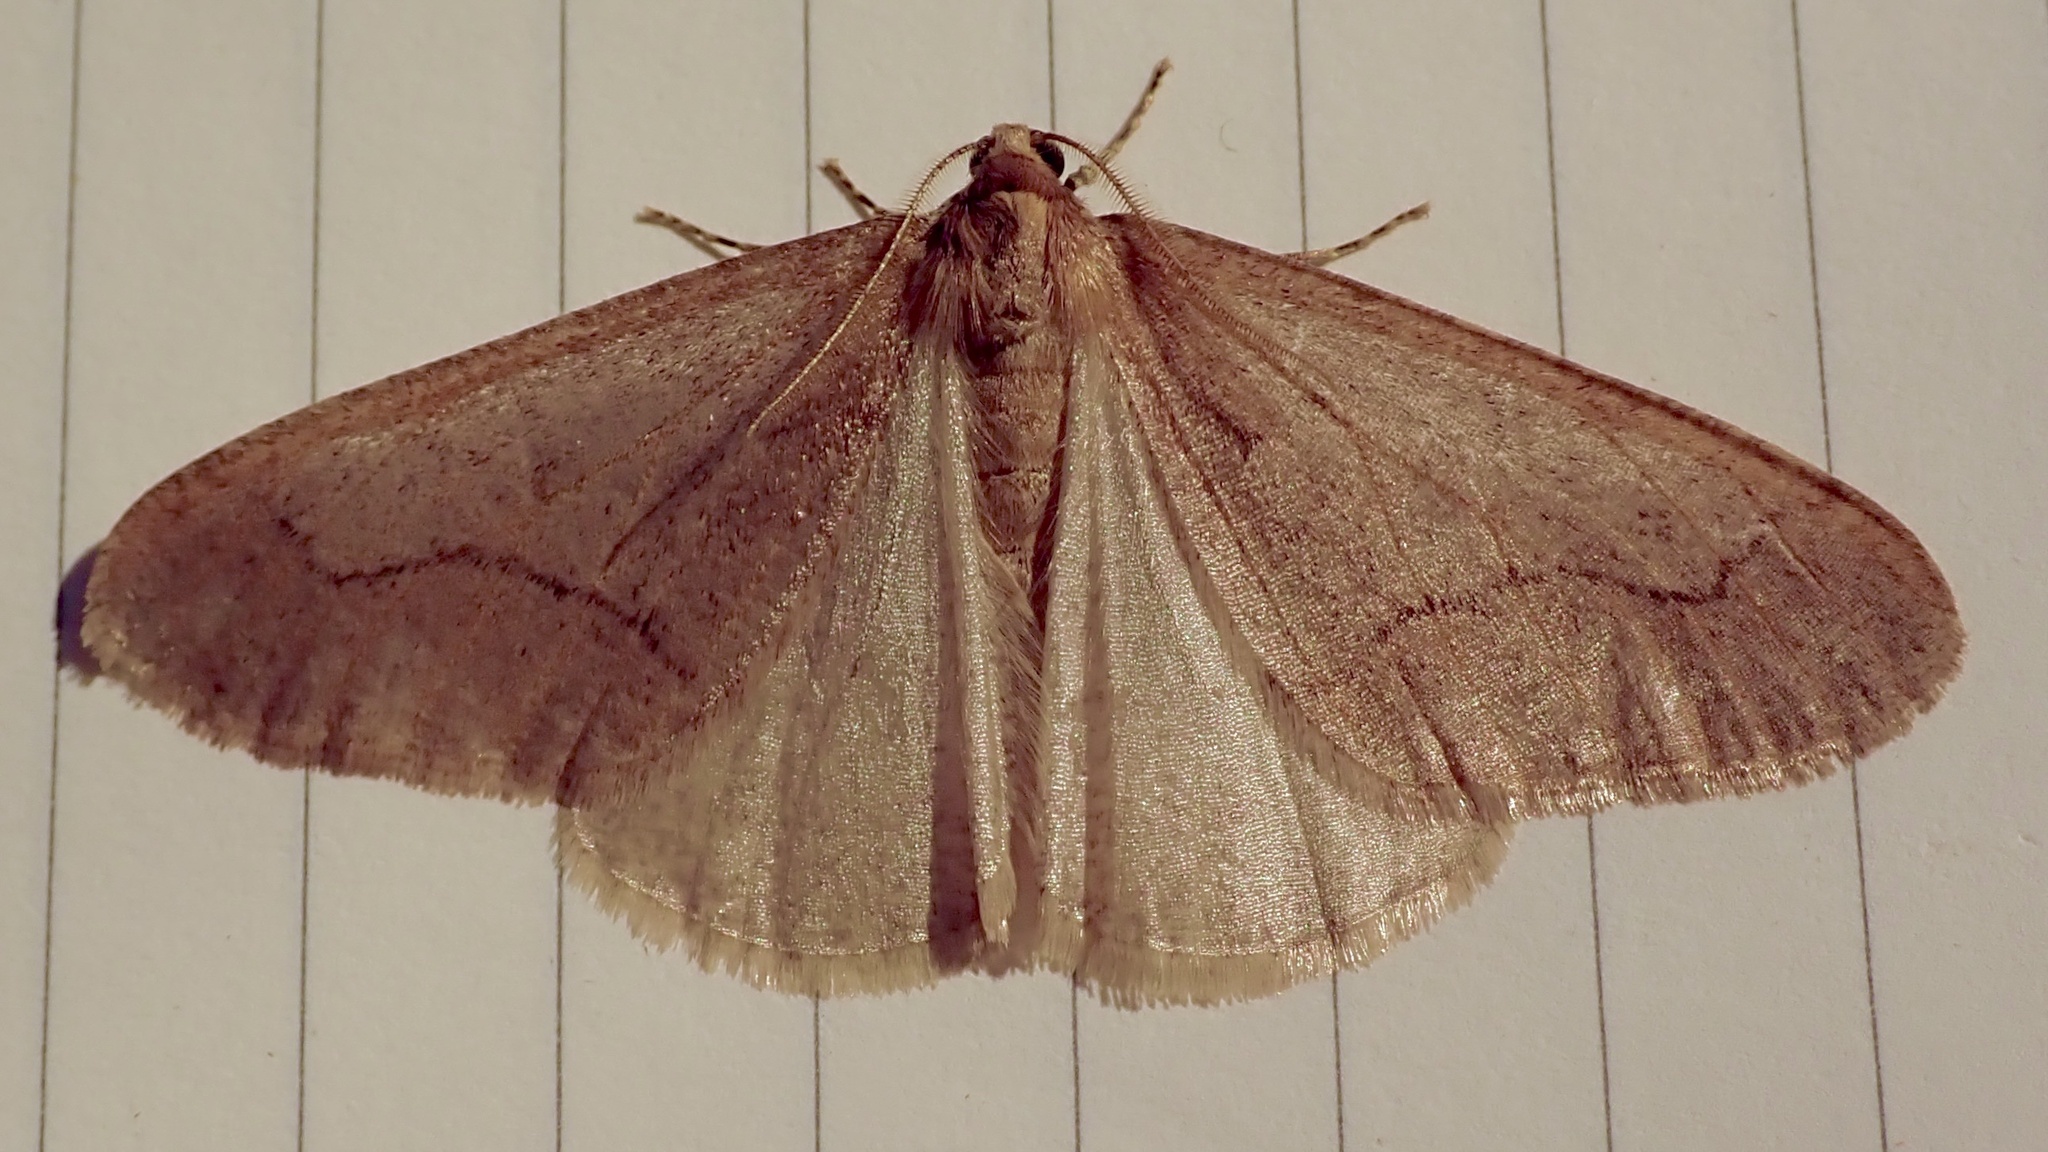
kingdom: Animalia
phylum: Arthropoda
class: Insecta
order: Lepidoptera
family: Geometridae
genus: Erannis
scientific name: Erannis tiliaria
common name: Linden looper
